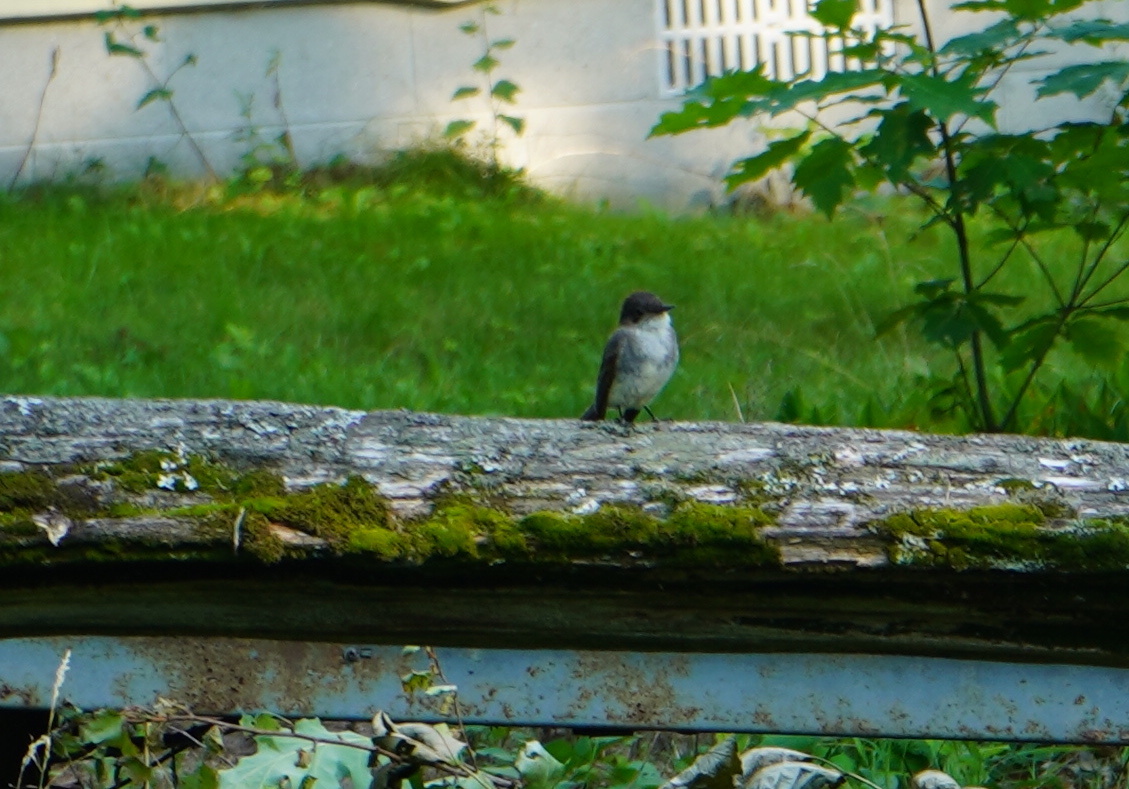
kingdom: Animalia
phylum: Chordata
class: Aves
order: Passeriformes
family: Tyrannidae
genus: Sayornis
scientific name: Sayornis phoebe
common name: Eastern phoebe
